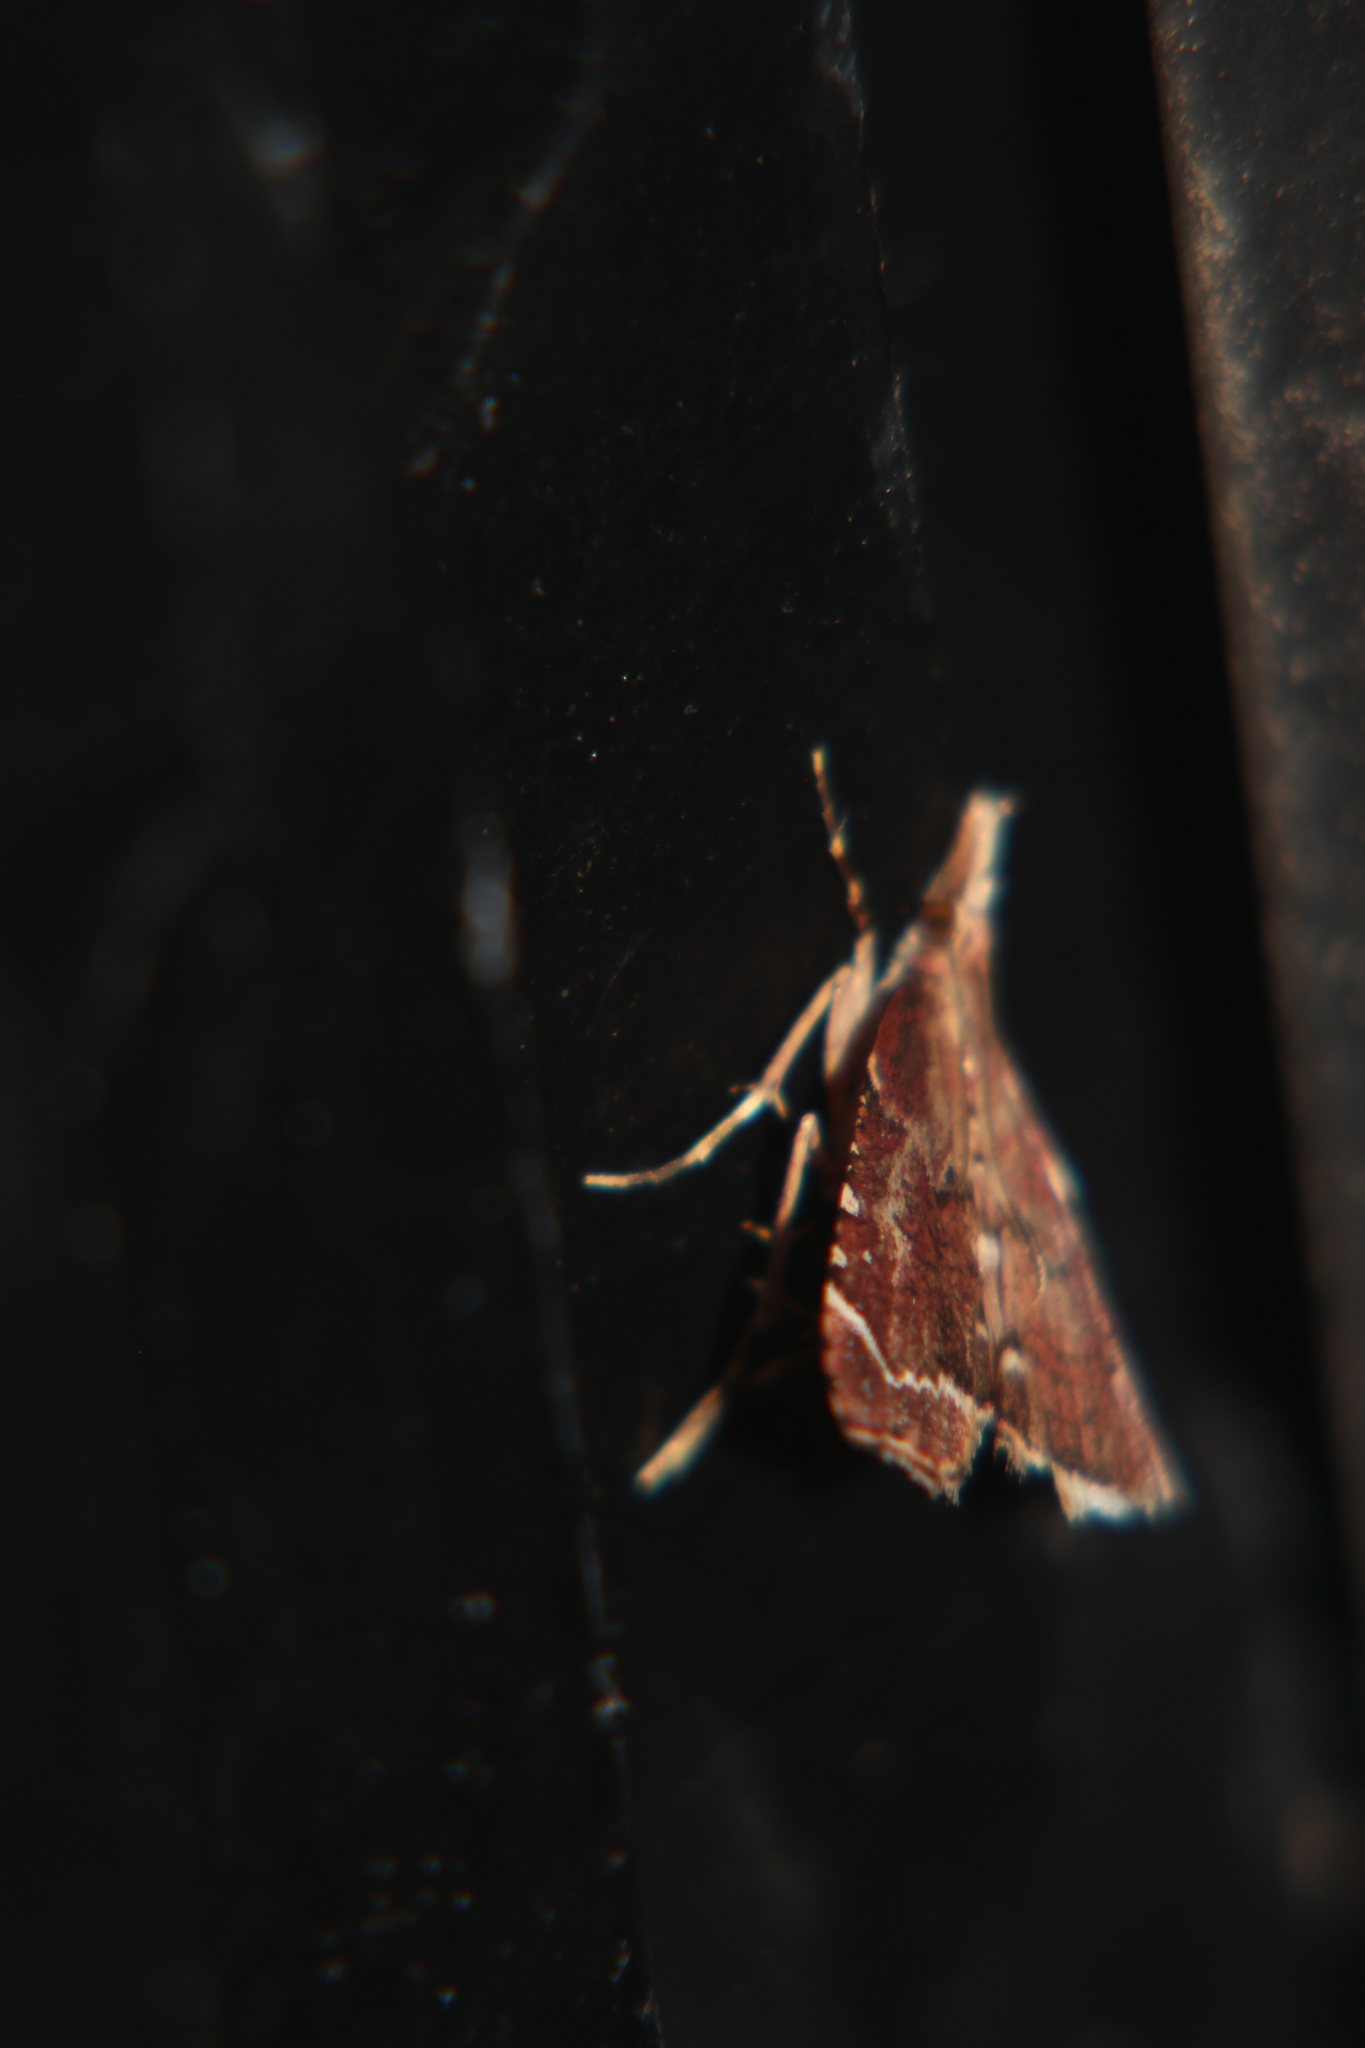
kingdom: Animalia
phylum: Arthropoda
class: Insecta
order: Lepidoptera
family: Crambidae
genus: Diplopseustis
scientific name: Diplopseustis perieresalis
